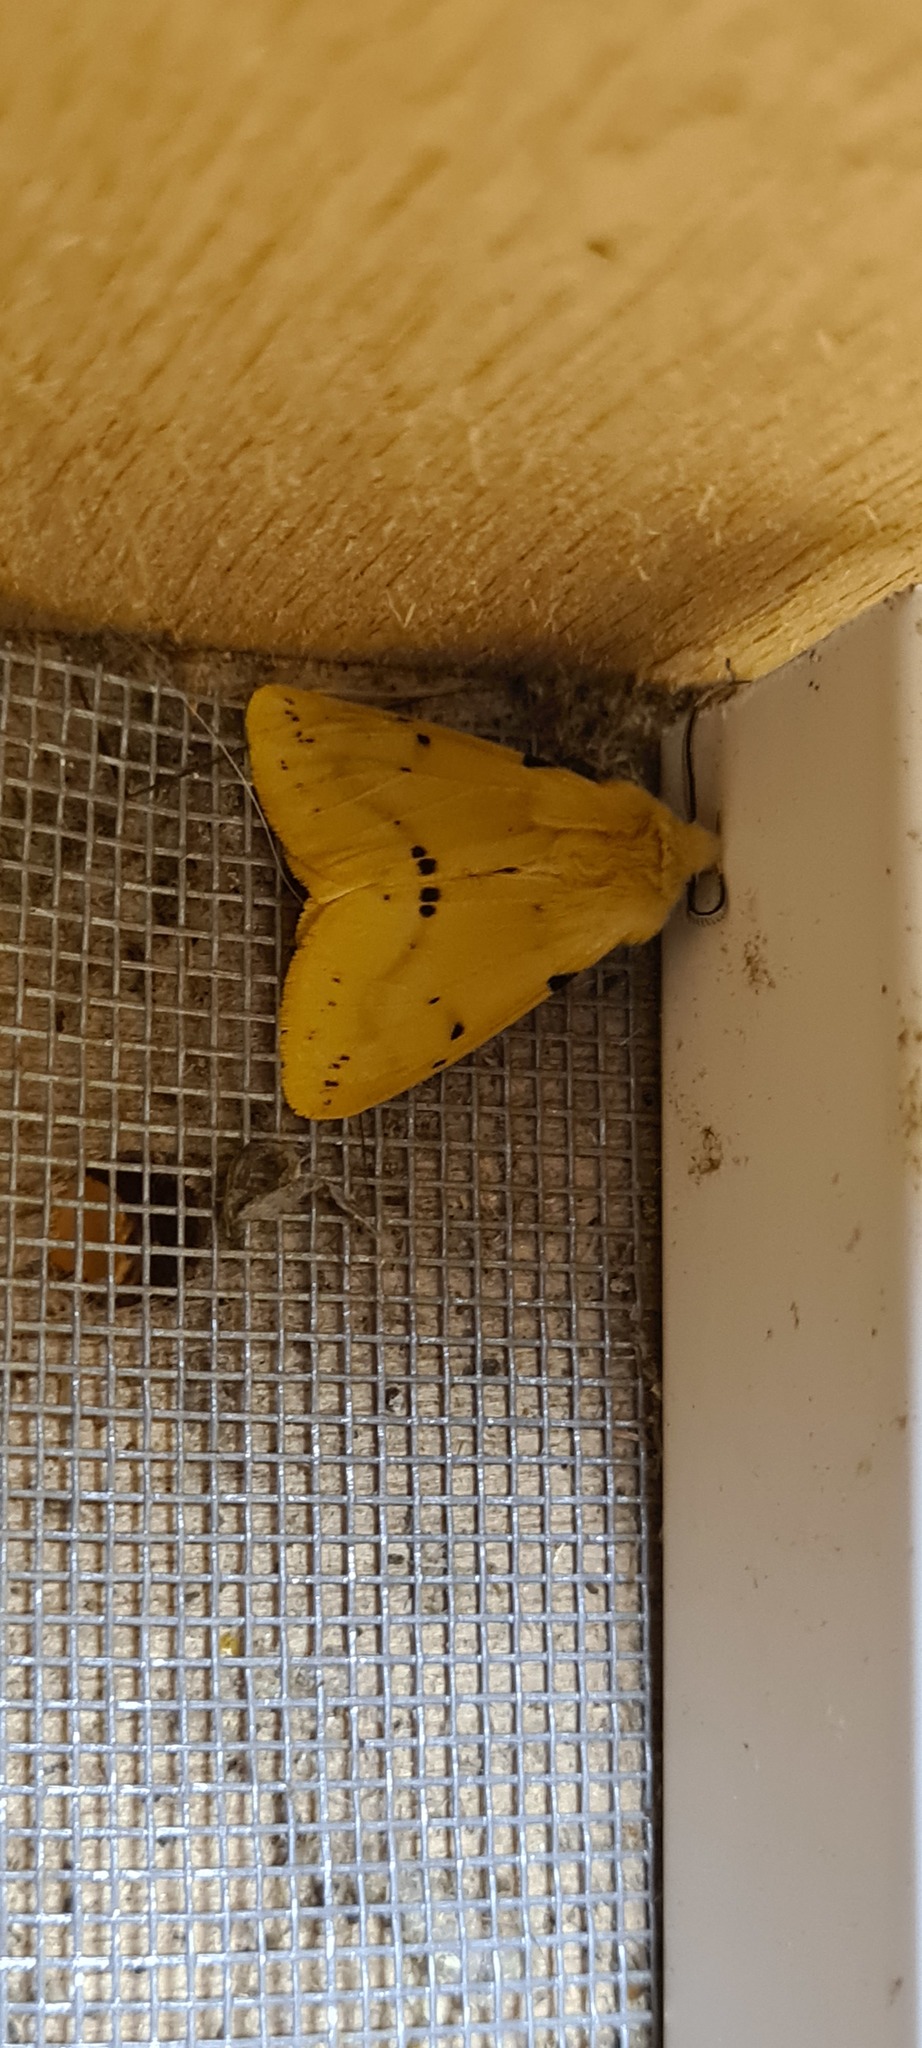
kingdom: Animalia
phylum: Arthropoda
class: Insecta
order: Lepidoptera
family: Erebidae
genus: Spilarctia
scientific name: Spilarctia lutea
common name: Buff ermine
